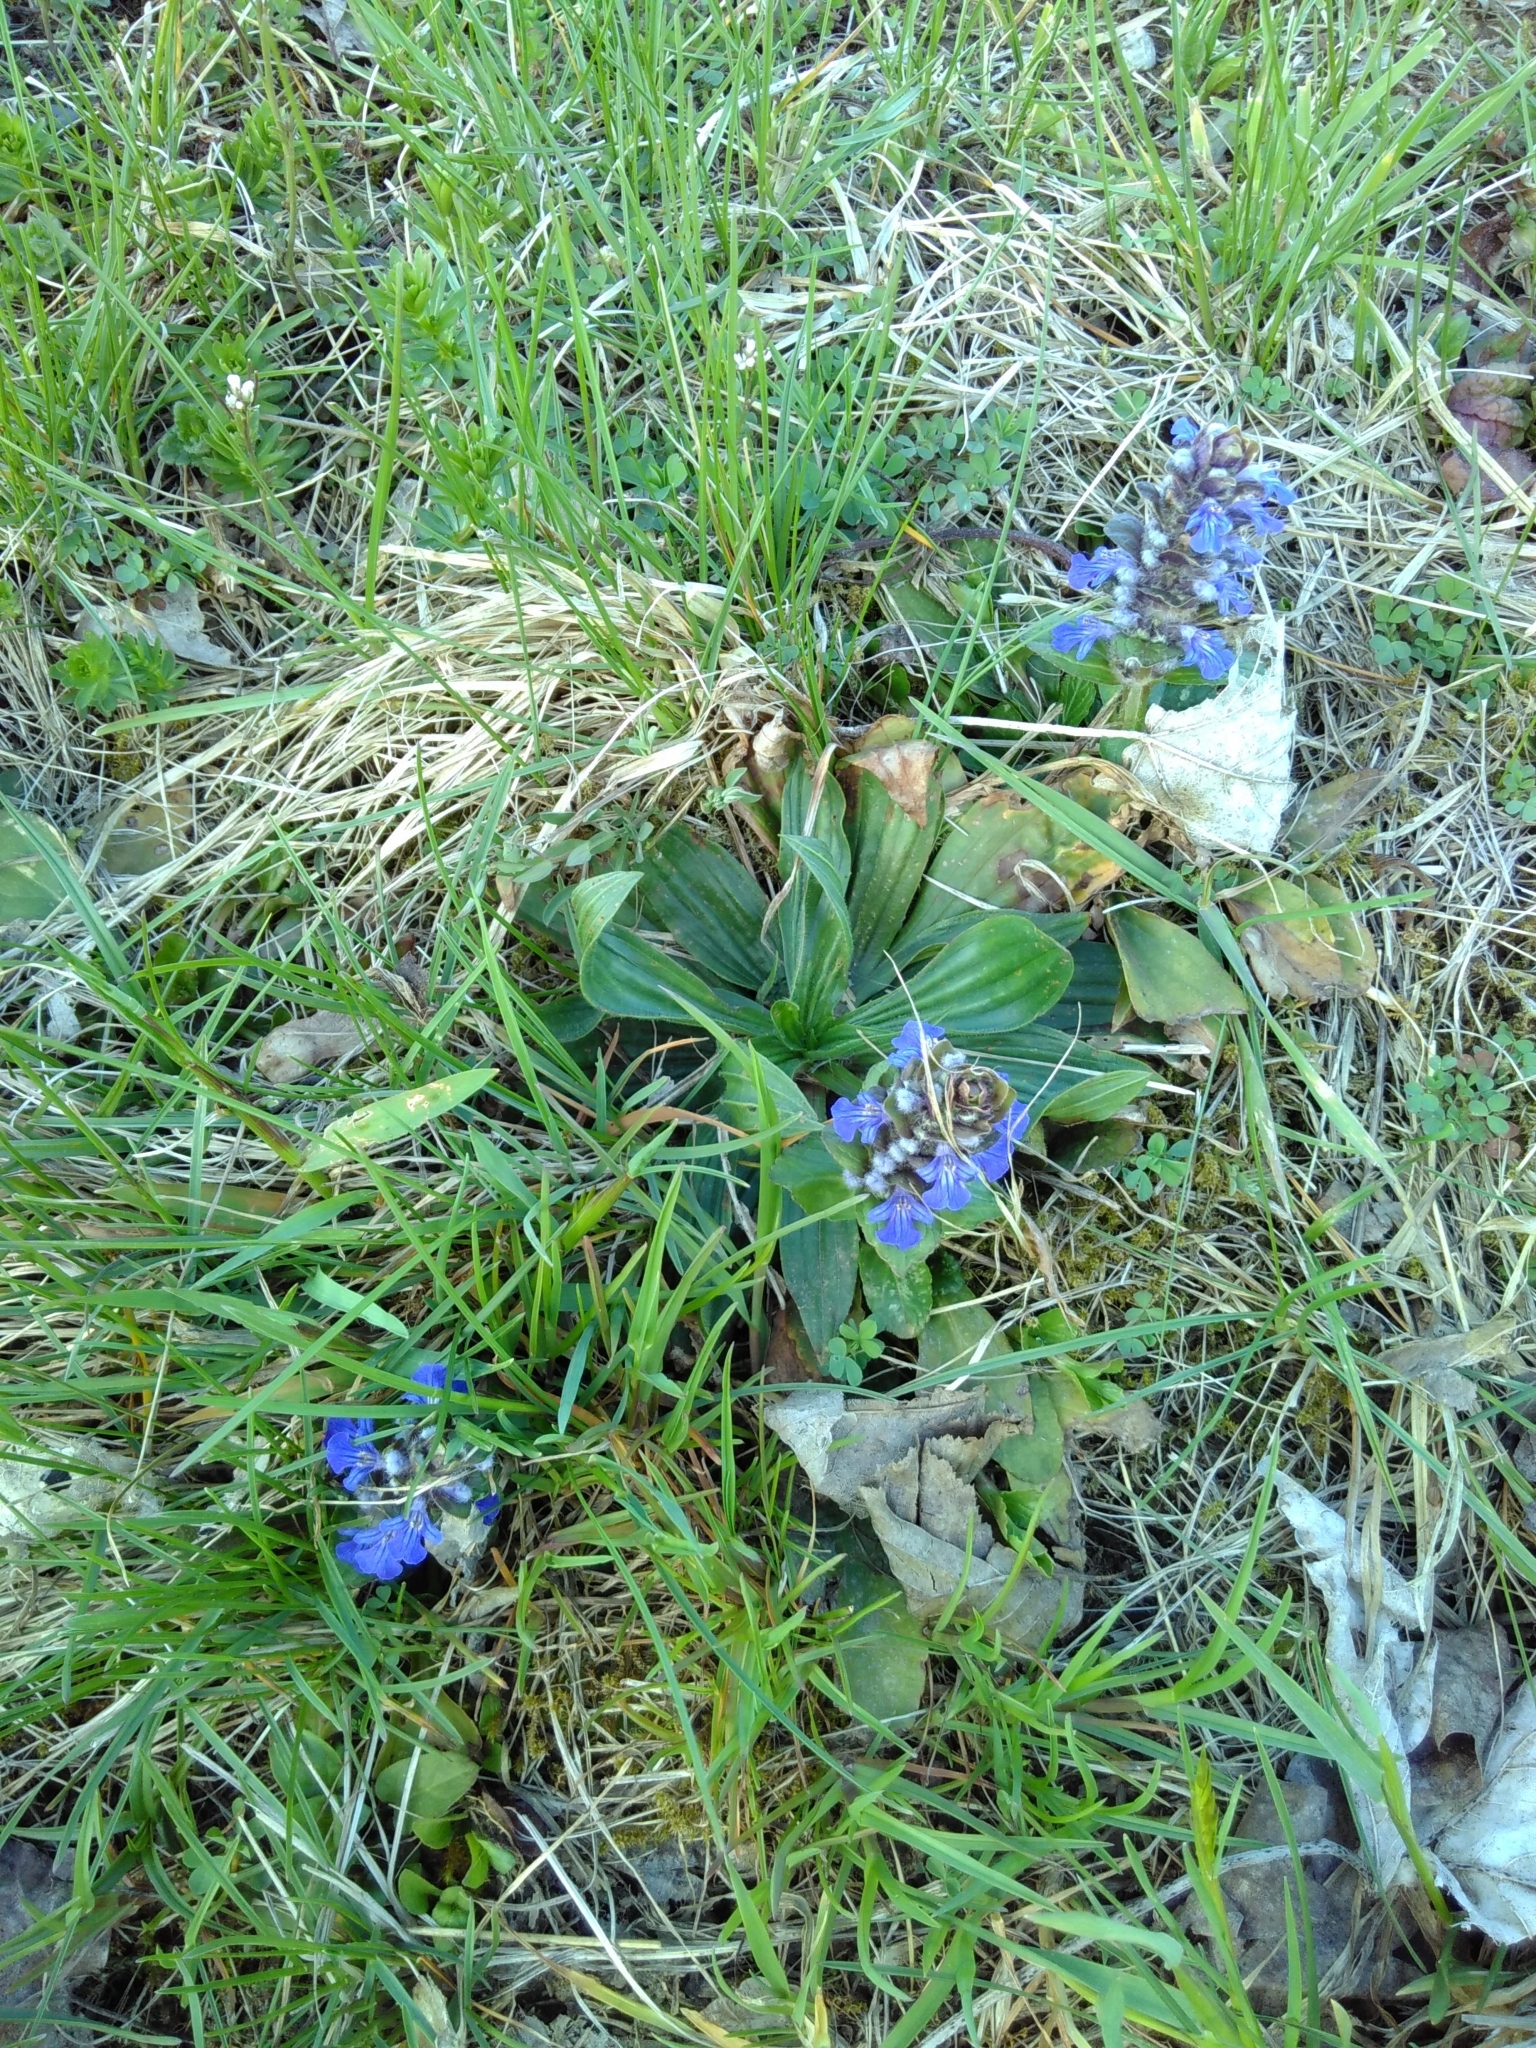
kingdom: Plantae
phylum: Tracheophyta
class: Magnoliopsida
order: Lamiales
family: Lamiaceae
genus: Ajuga
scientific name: Ajuga reptans
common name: Bugle
